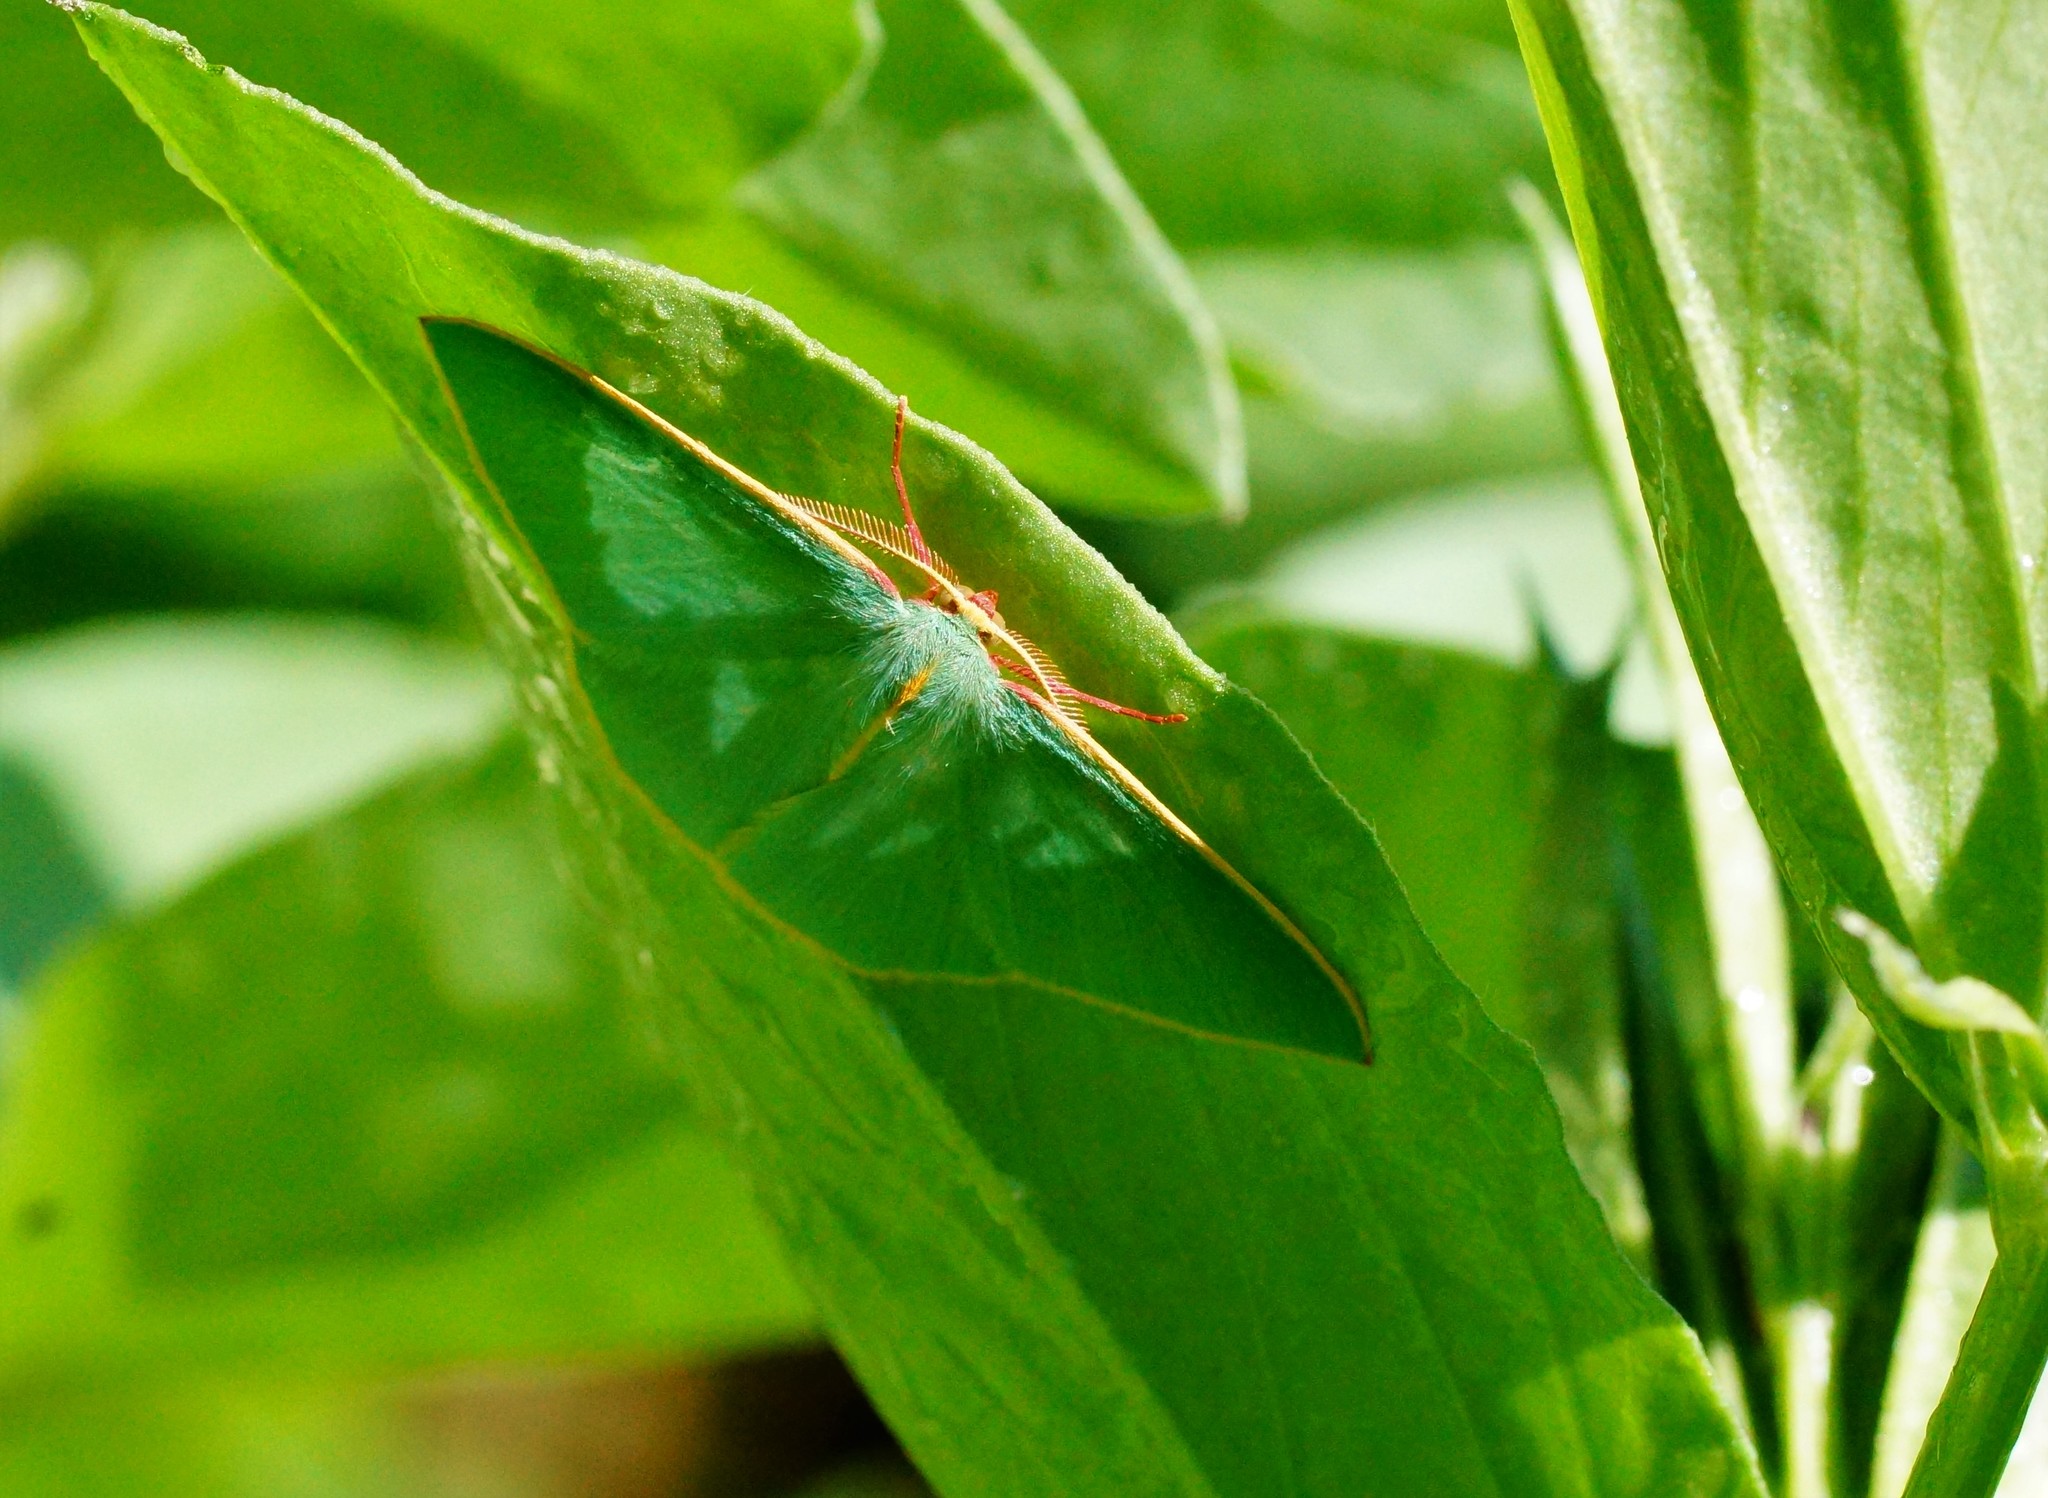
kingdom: Animalia
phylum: Arthropoda
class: Insecta
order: Lepidoptera
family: Geometridae
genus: Chlorocoma
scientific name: Chlorocoma assimilis
